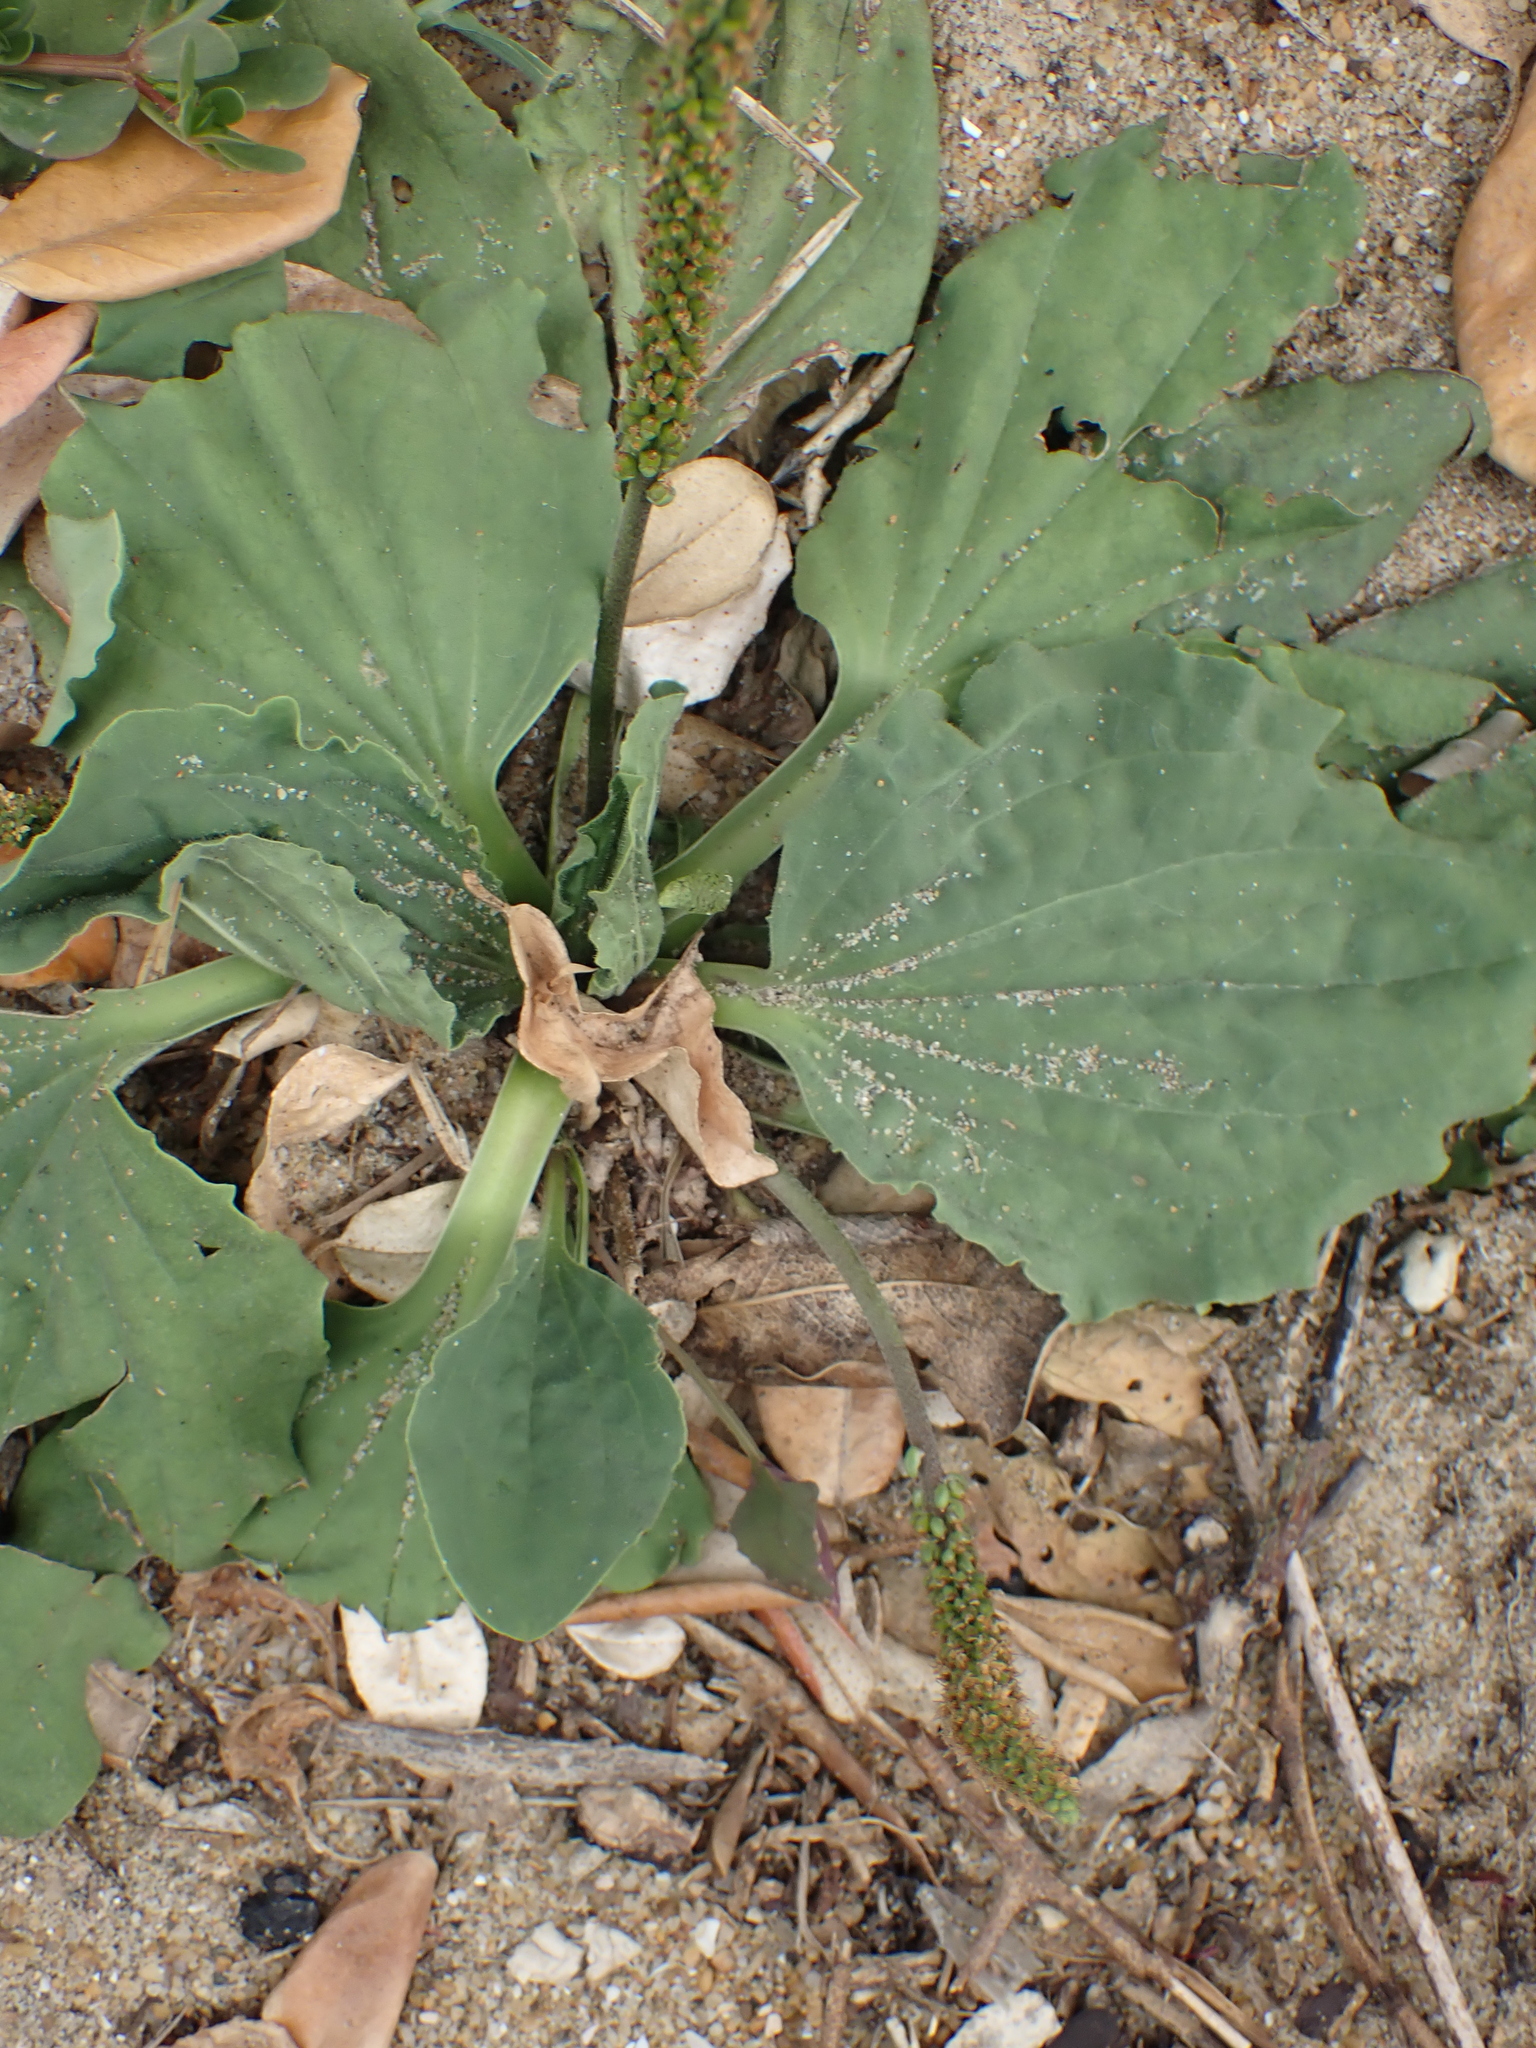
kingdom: Plantae
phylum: Tracheophyta
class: Magnoliopsida
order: Lamiales
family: Plantaginaceae
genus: Plantago
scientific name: Plantago major
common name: Common plantain
